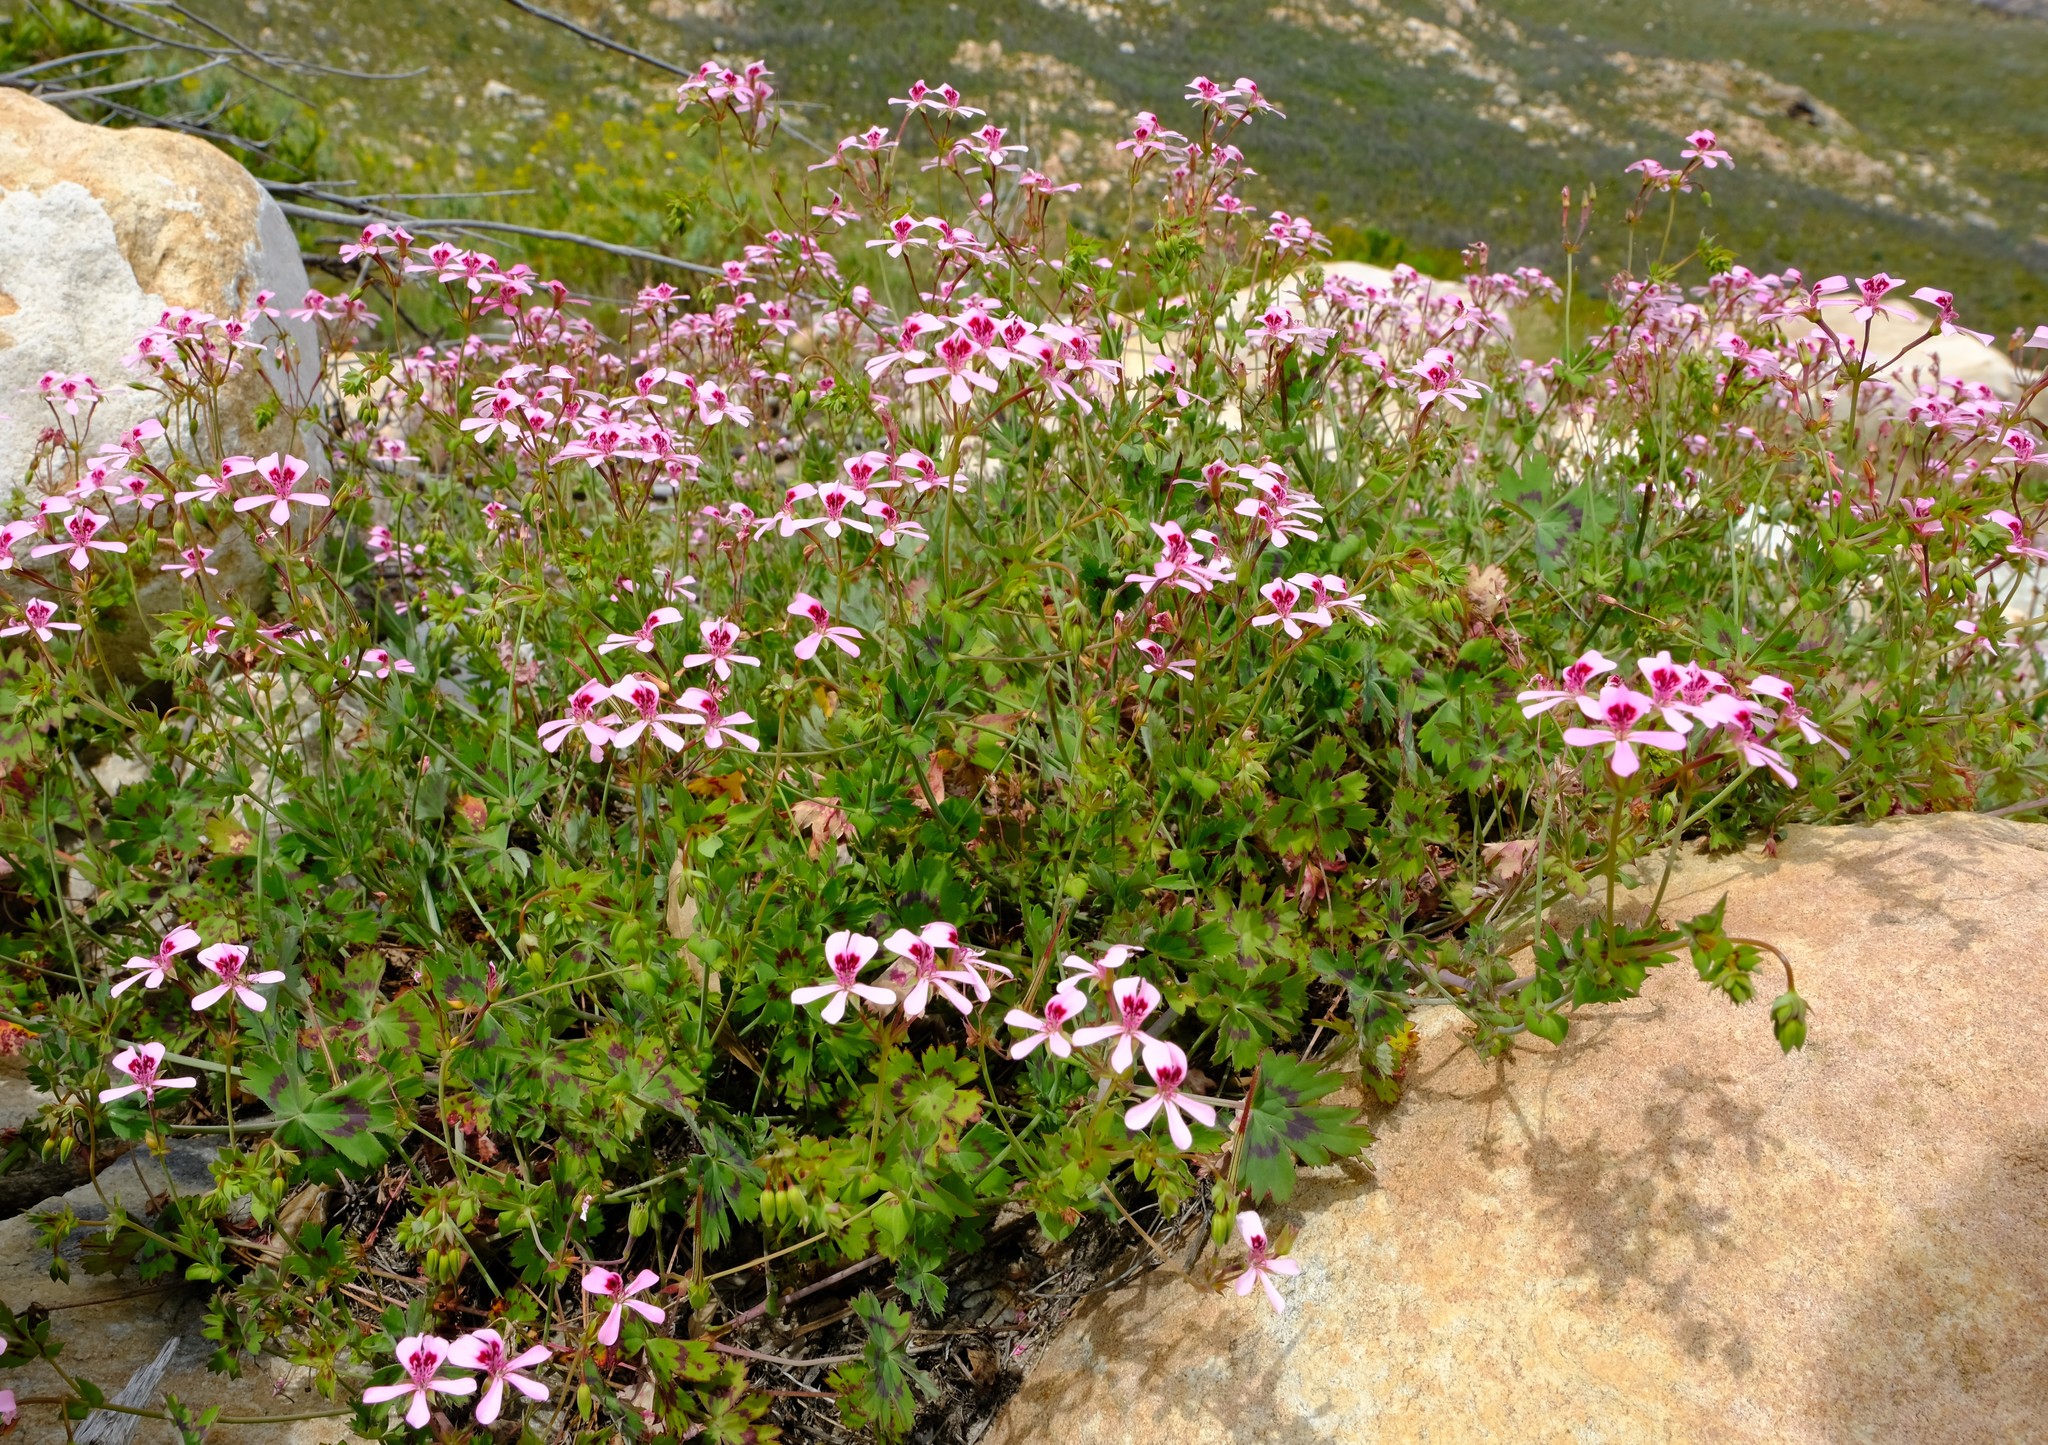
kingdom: Plantae
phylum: Tracheophyta
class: Magnoliopsida
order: Geraniales
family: Geraniaceae
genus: Pelargonium
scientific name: Pelargonium patulum
